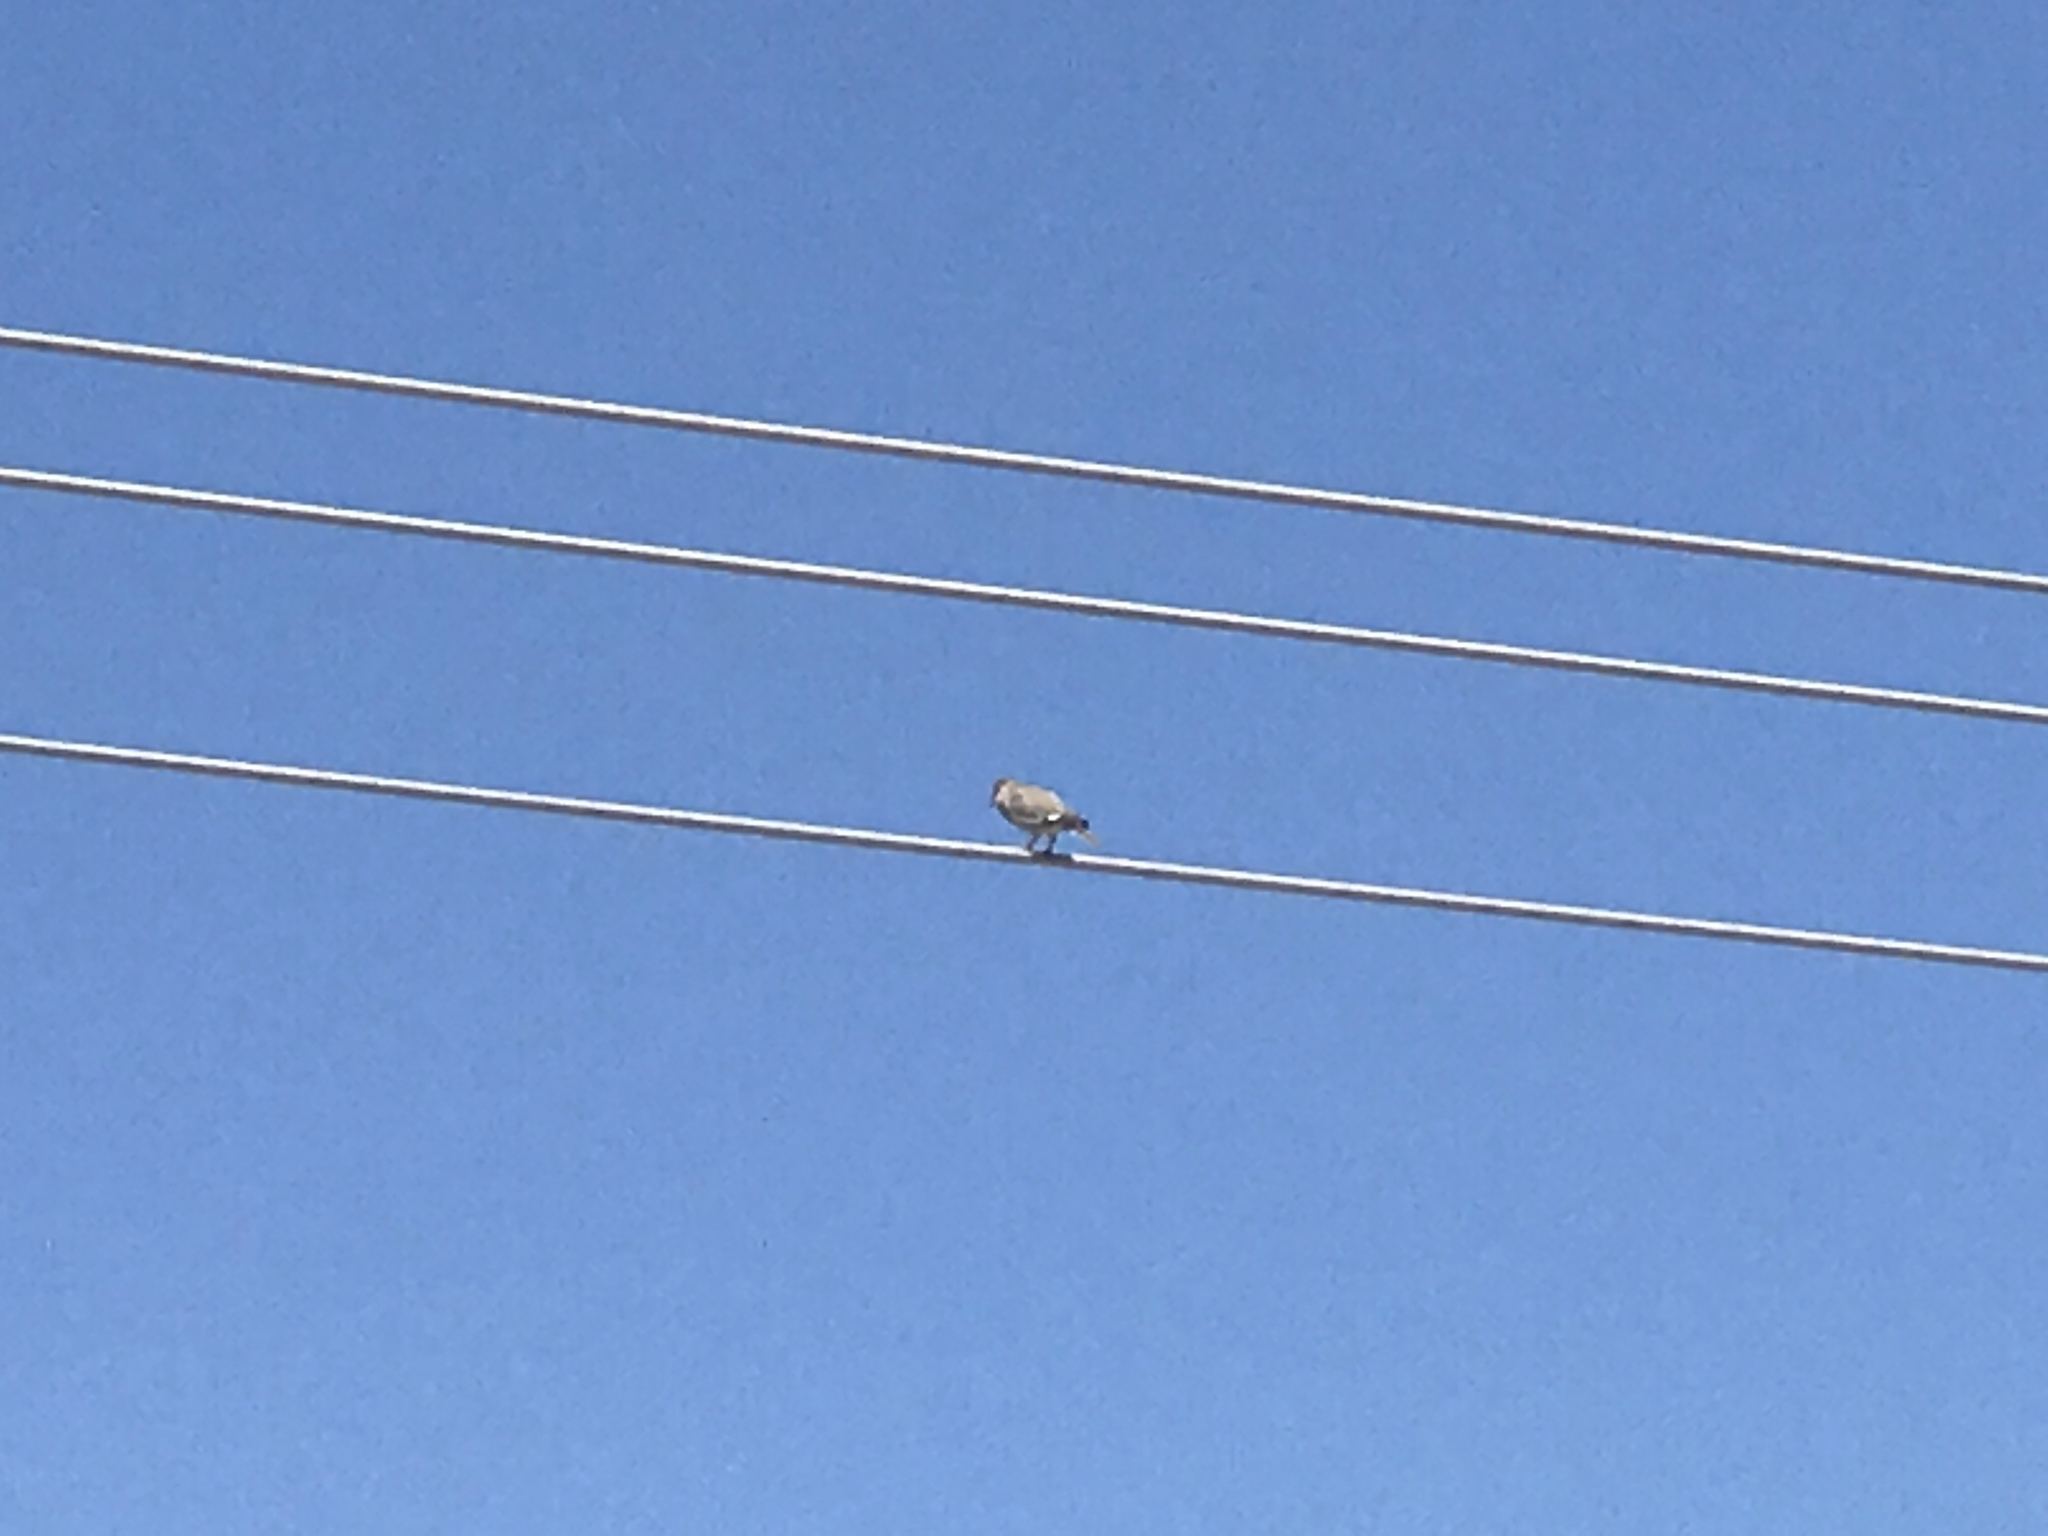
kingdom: Animalia
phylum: Chordata
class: Aves
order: Columbiformes
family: Columbidae
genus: Zenaida
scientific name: Zenaida asiatica
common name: White-winged dove
